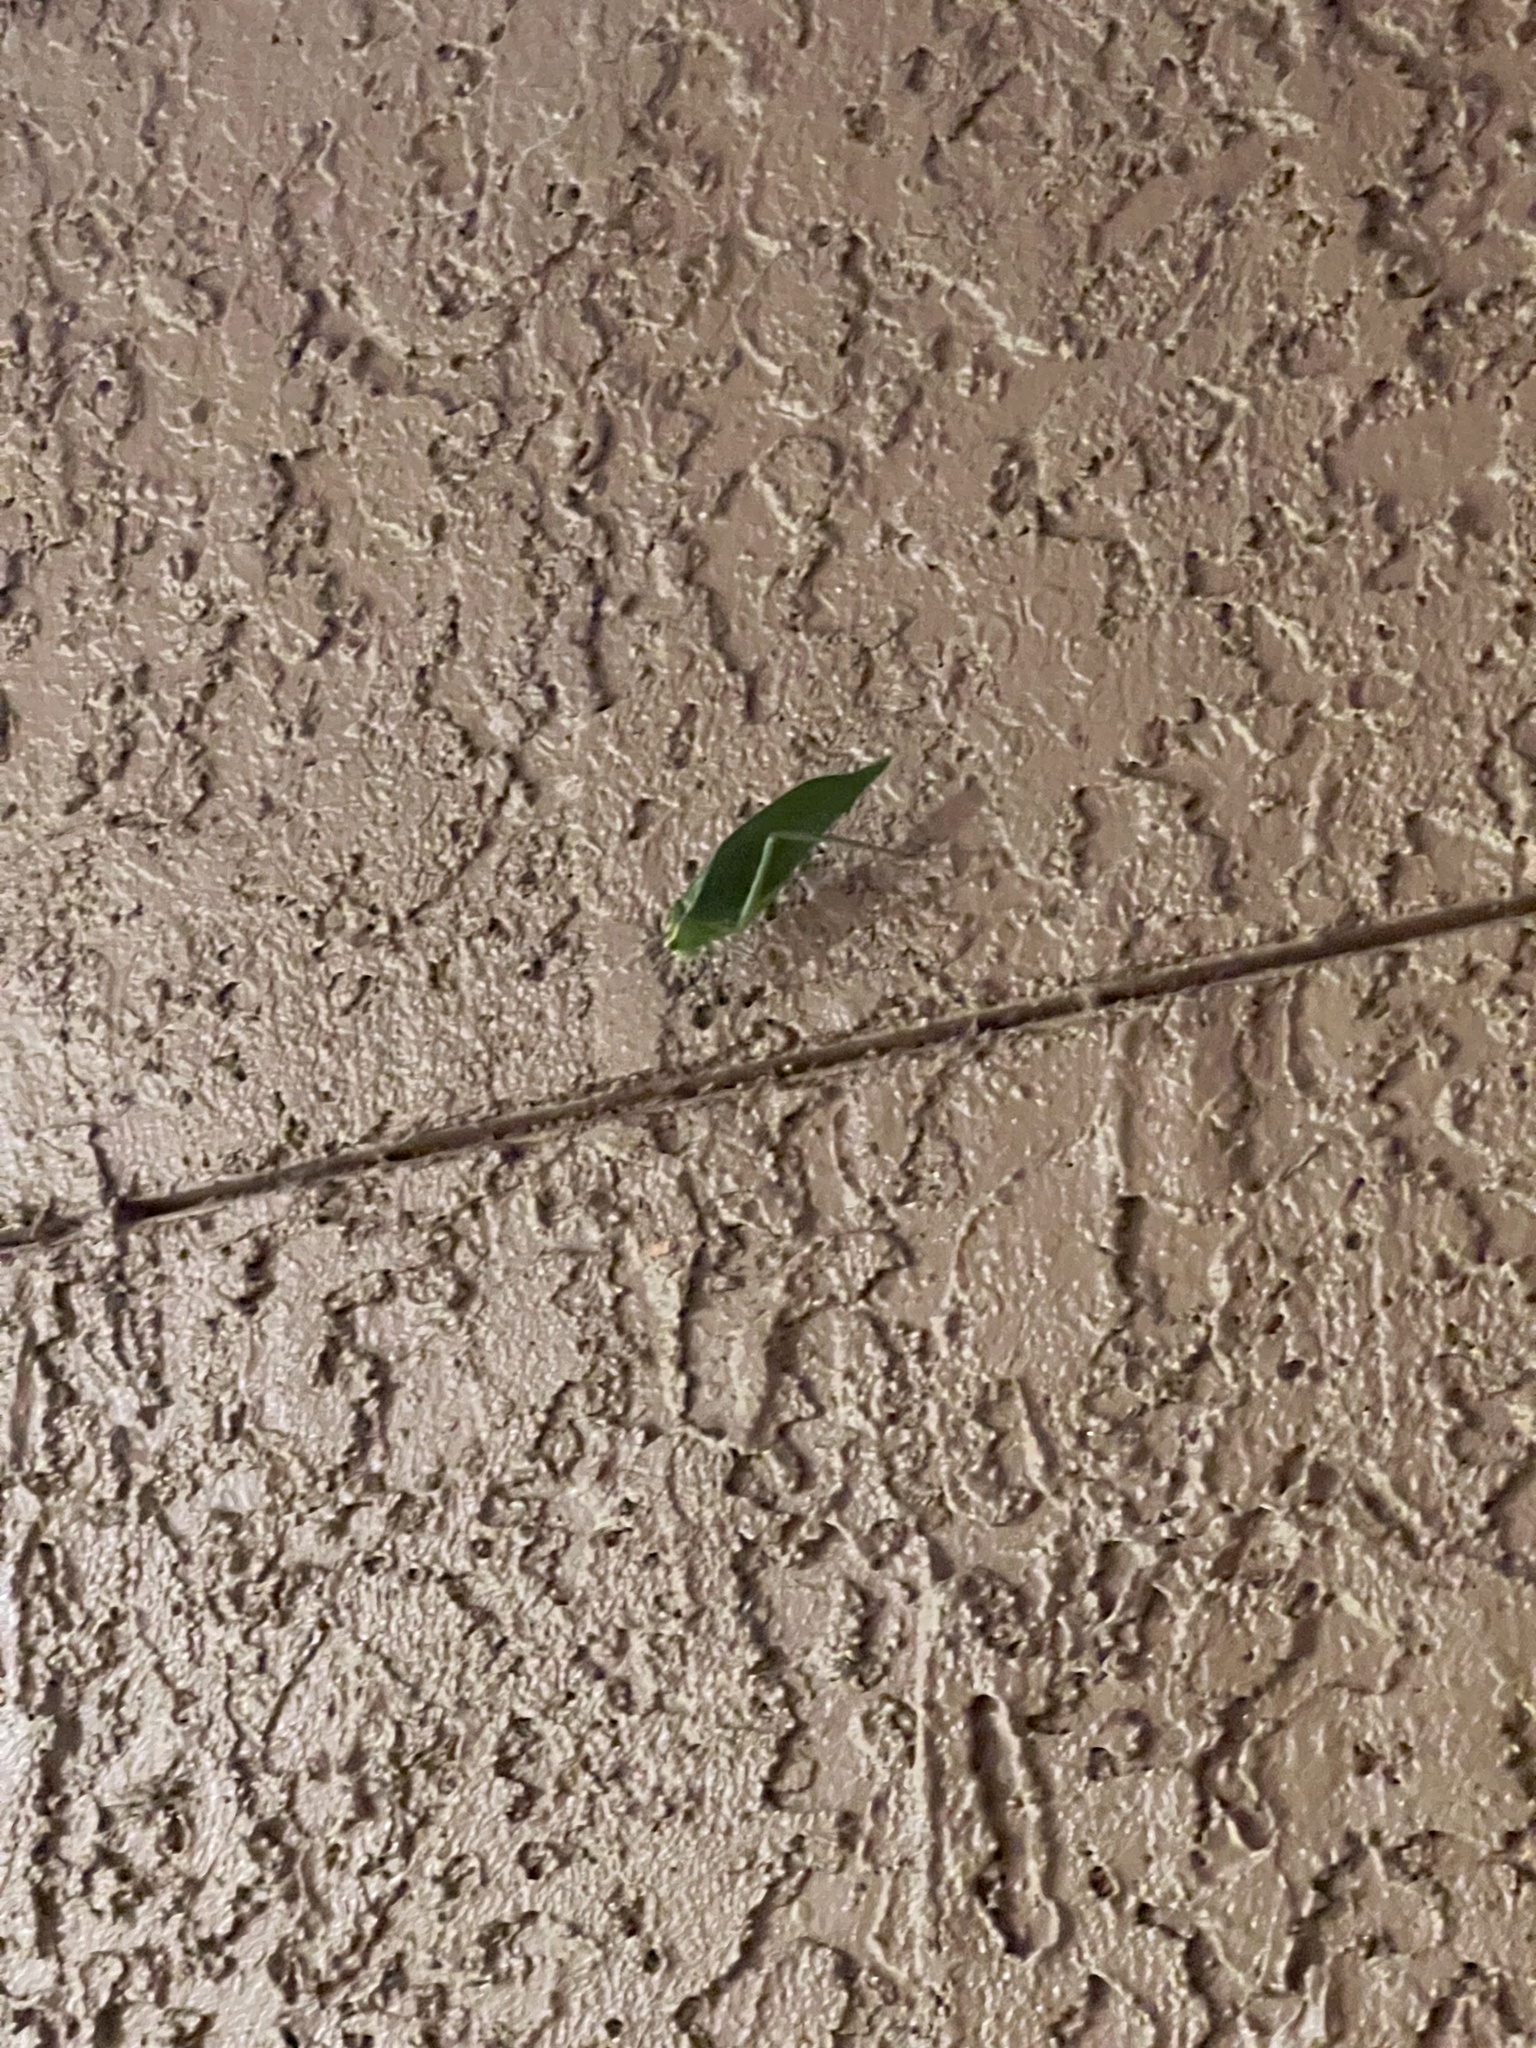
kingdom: Animalia
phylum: Arthropoda
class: Insecta
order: Orthoptera
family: Tettigoniidae
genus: Stilpnochlora
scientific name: Stilpnochlora couloniana
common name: Giant katydid
